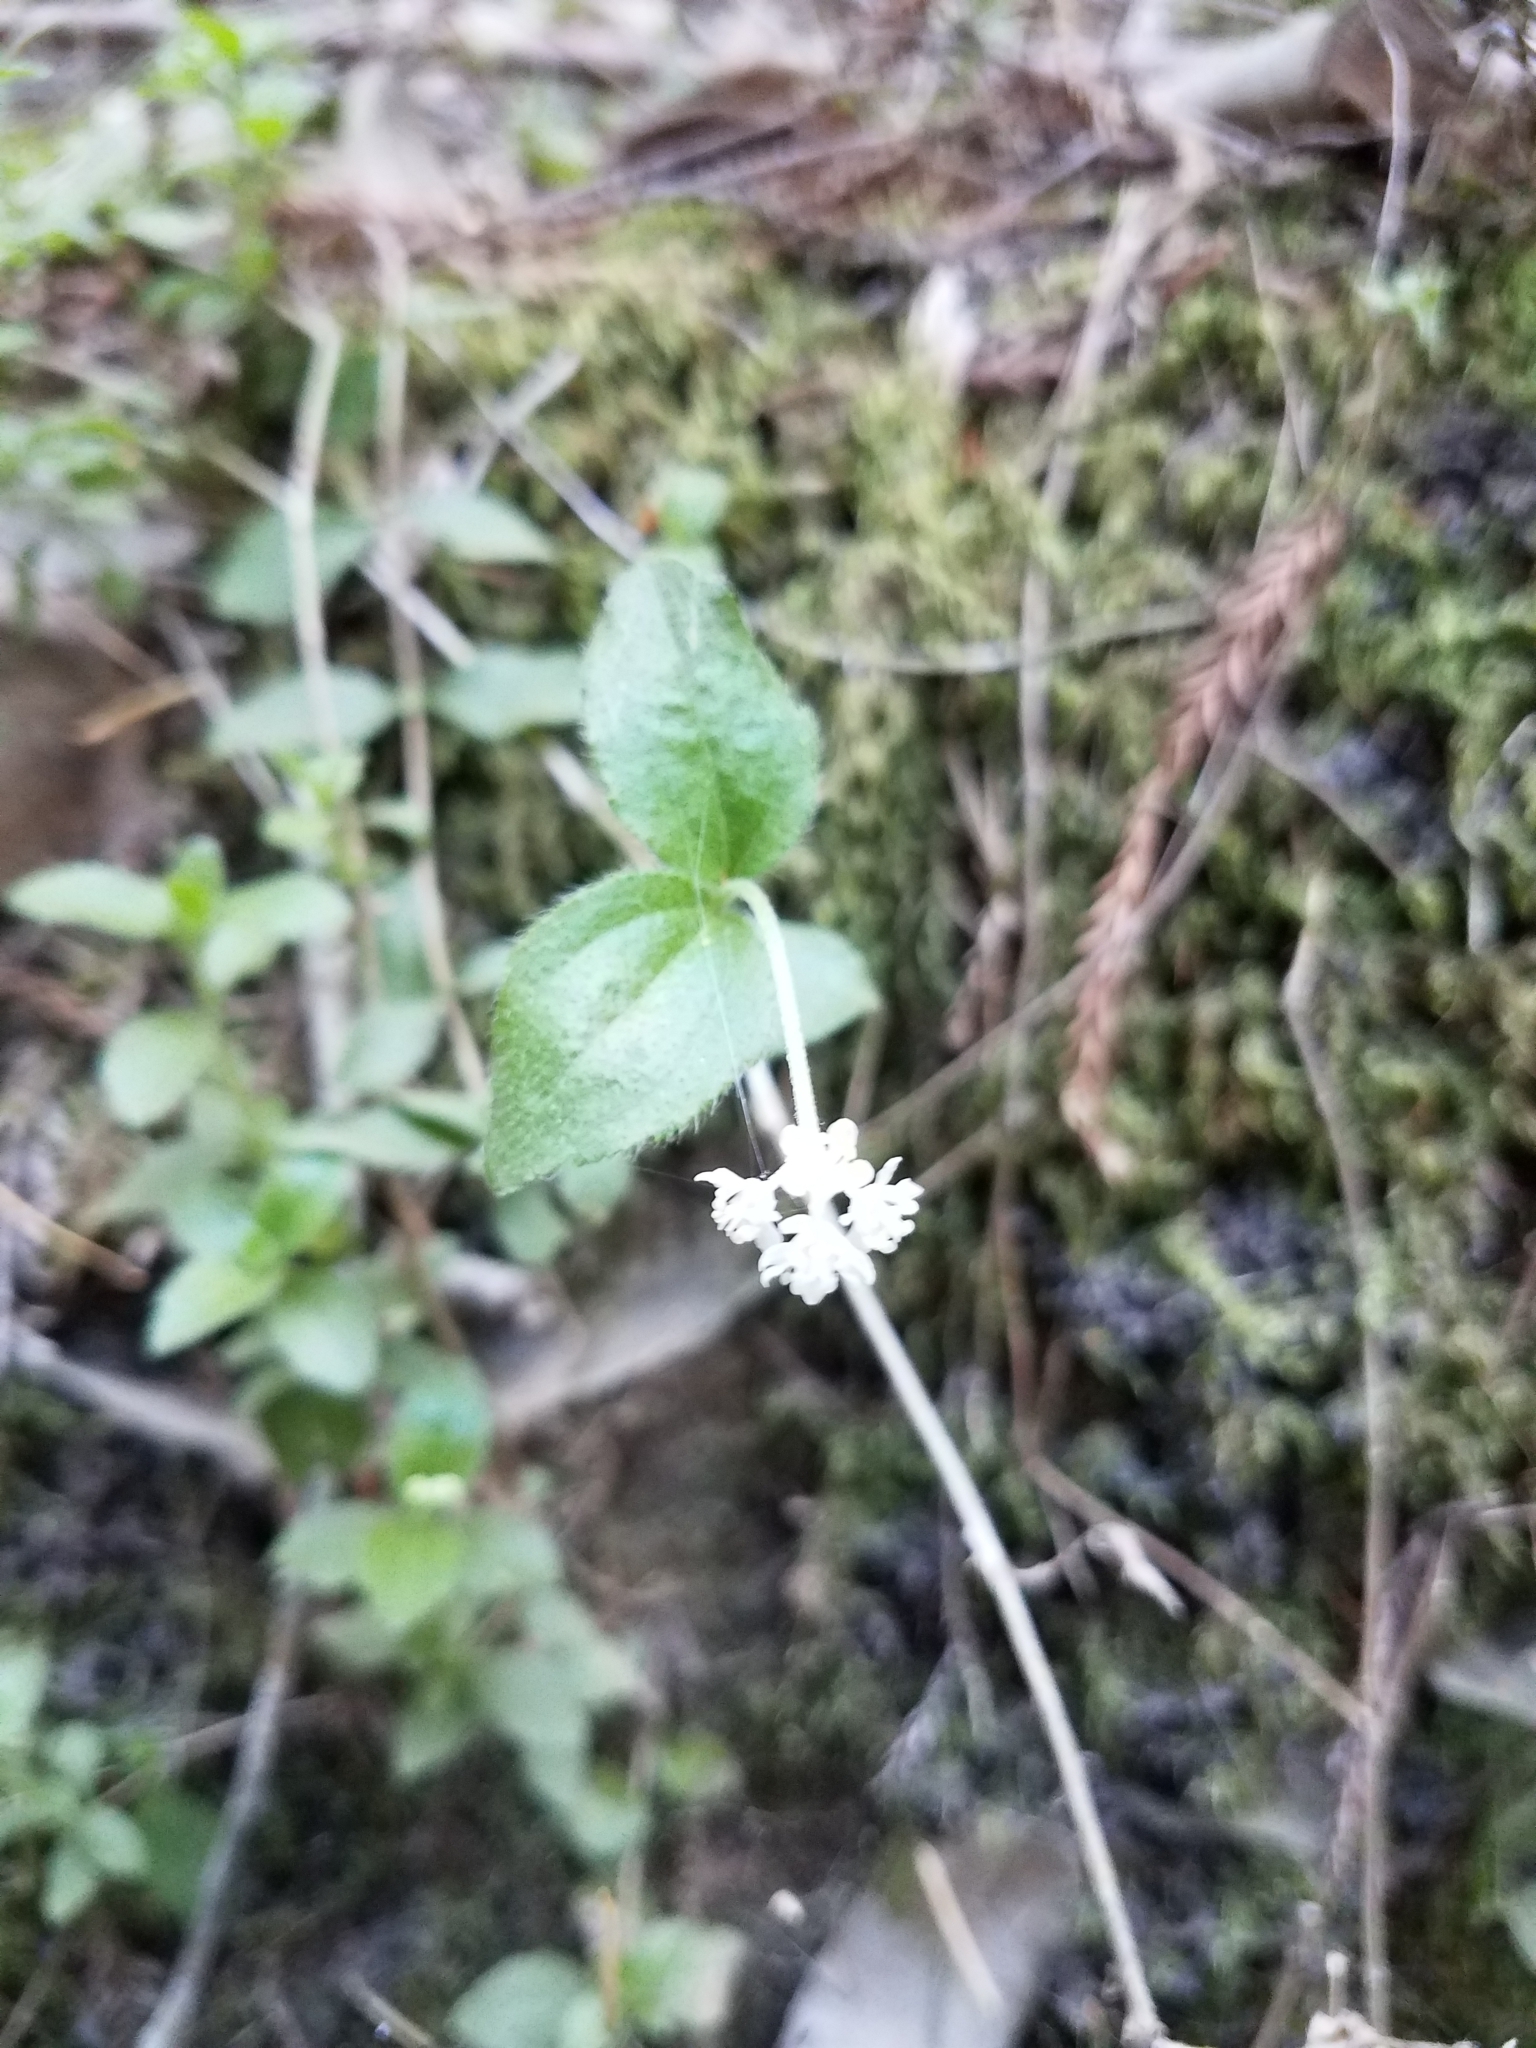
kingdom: Plantae
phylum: Tracheophyta
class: Magnoliopsida
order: Cornales
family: Hydrangeaceae
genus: Whipplea
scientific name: Whipplea modesta
